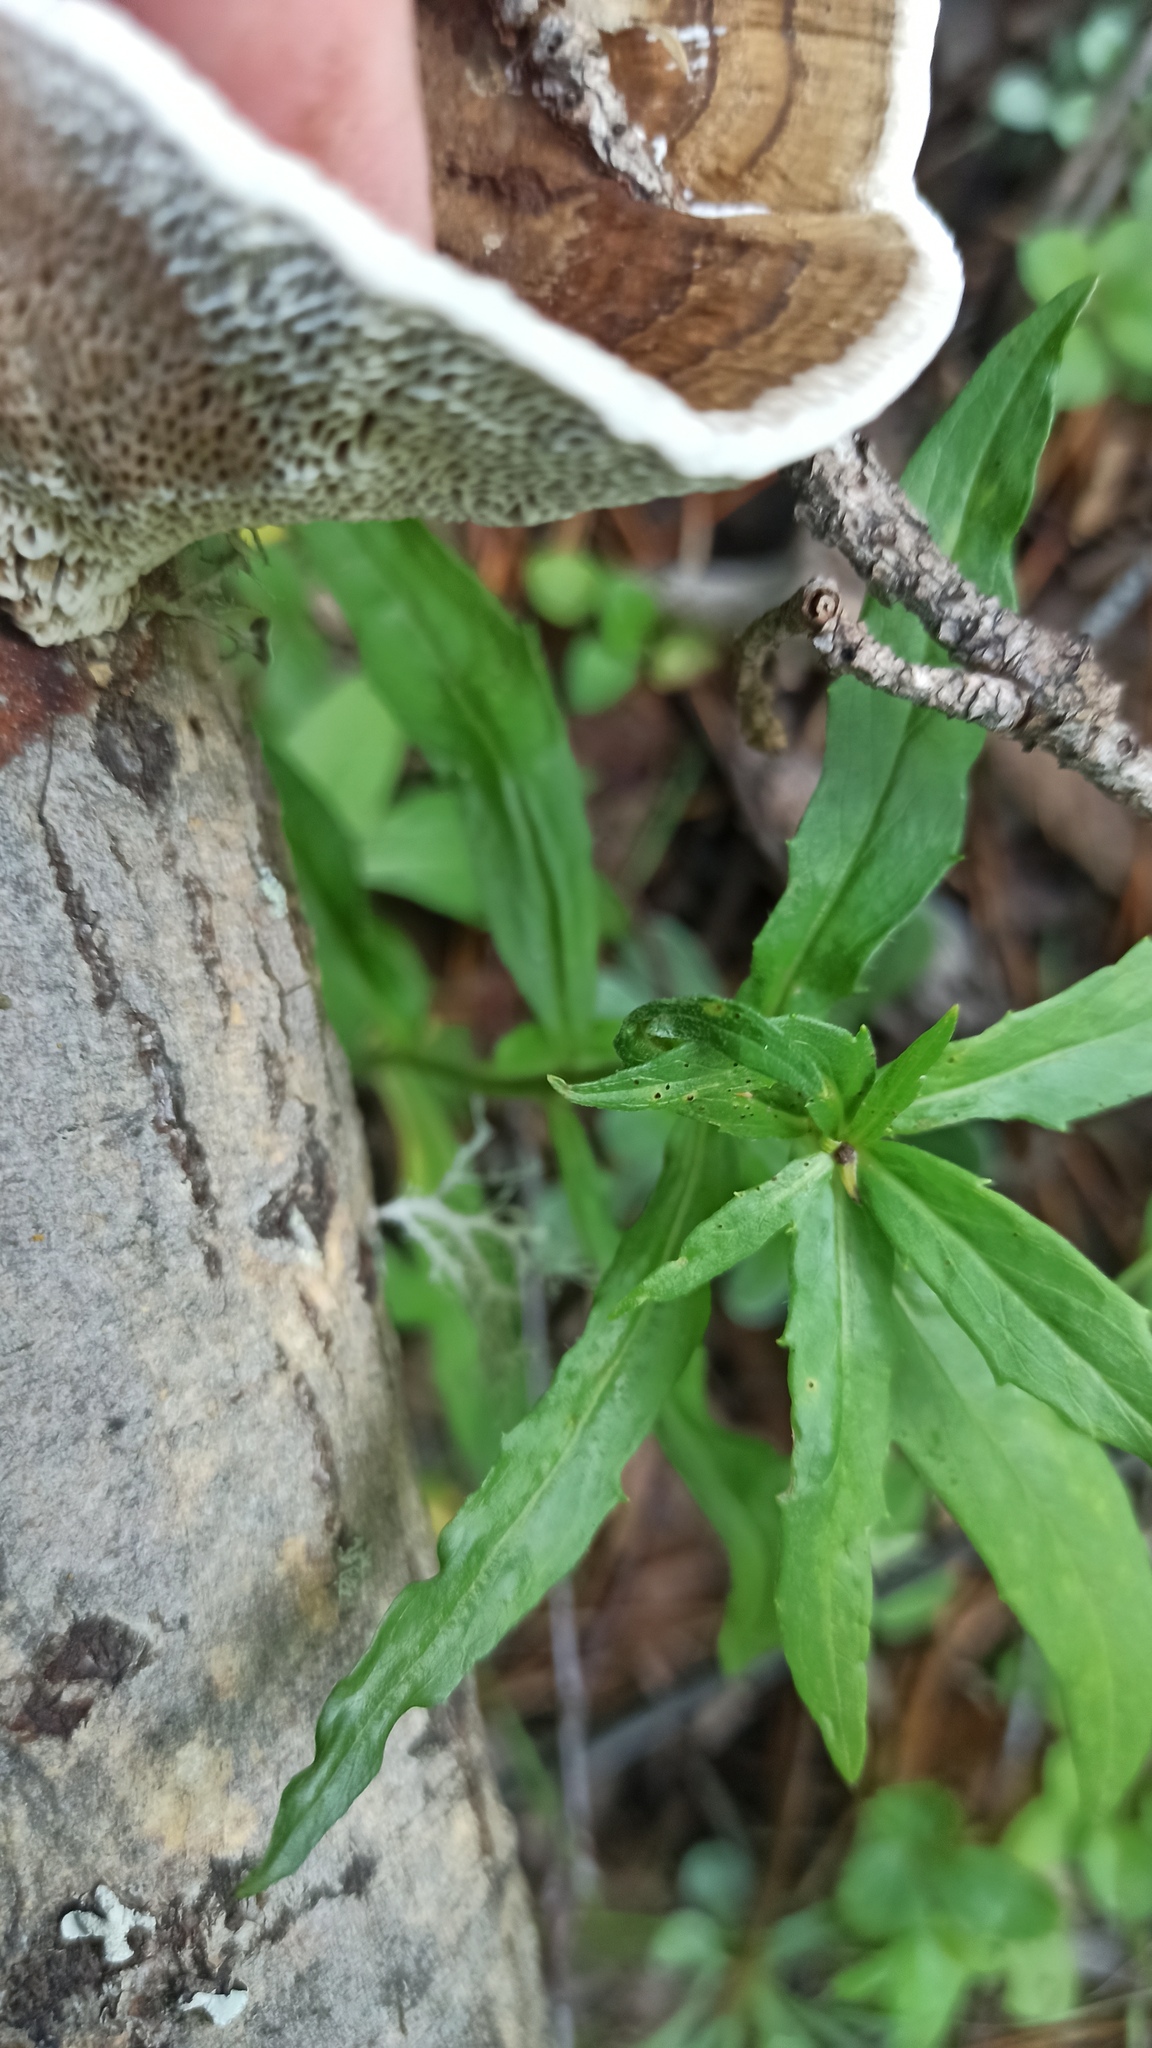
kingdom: Fungi
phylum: Basidiomycota
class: Agaricomycetes
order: Polyporales
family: Polyporaceae
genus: Daedaleopsis
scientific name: Daedaleopsis confragosa
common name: Blushing bracket
